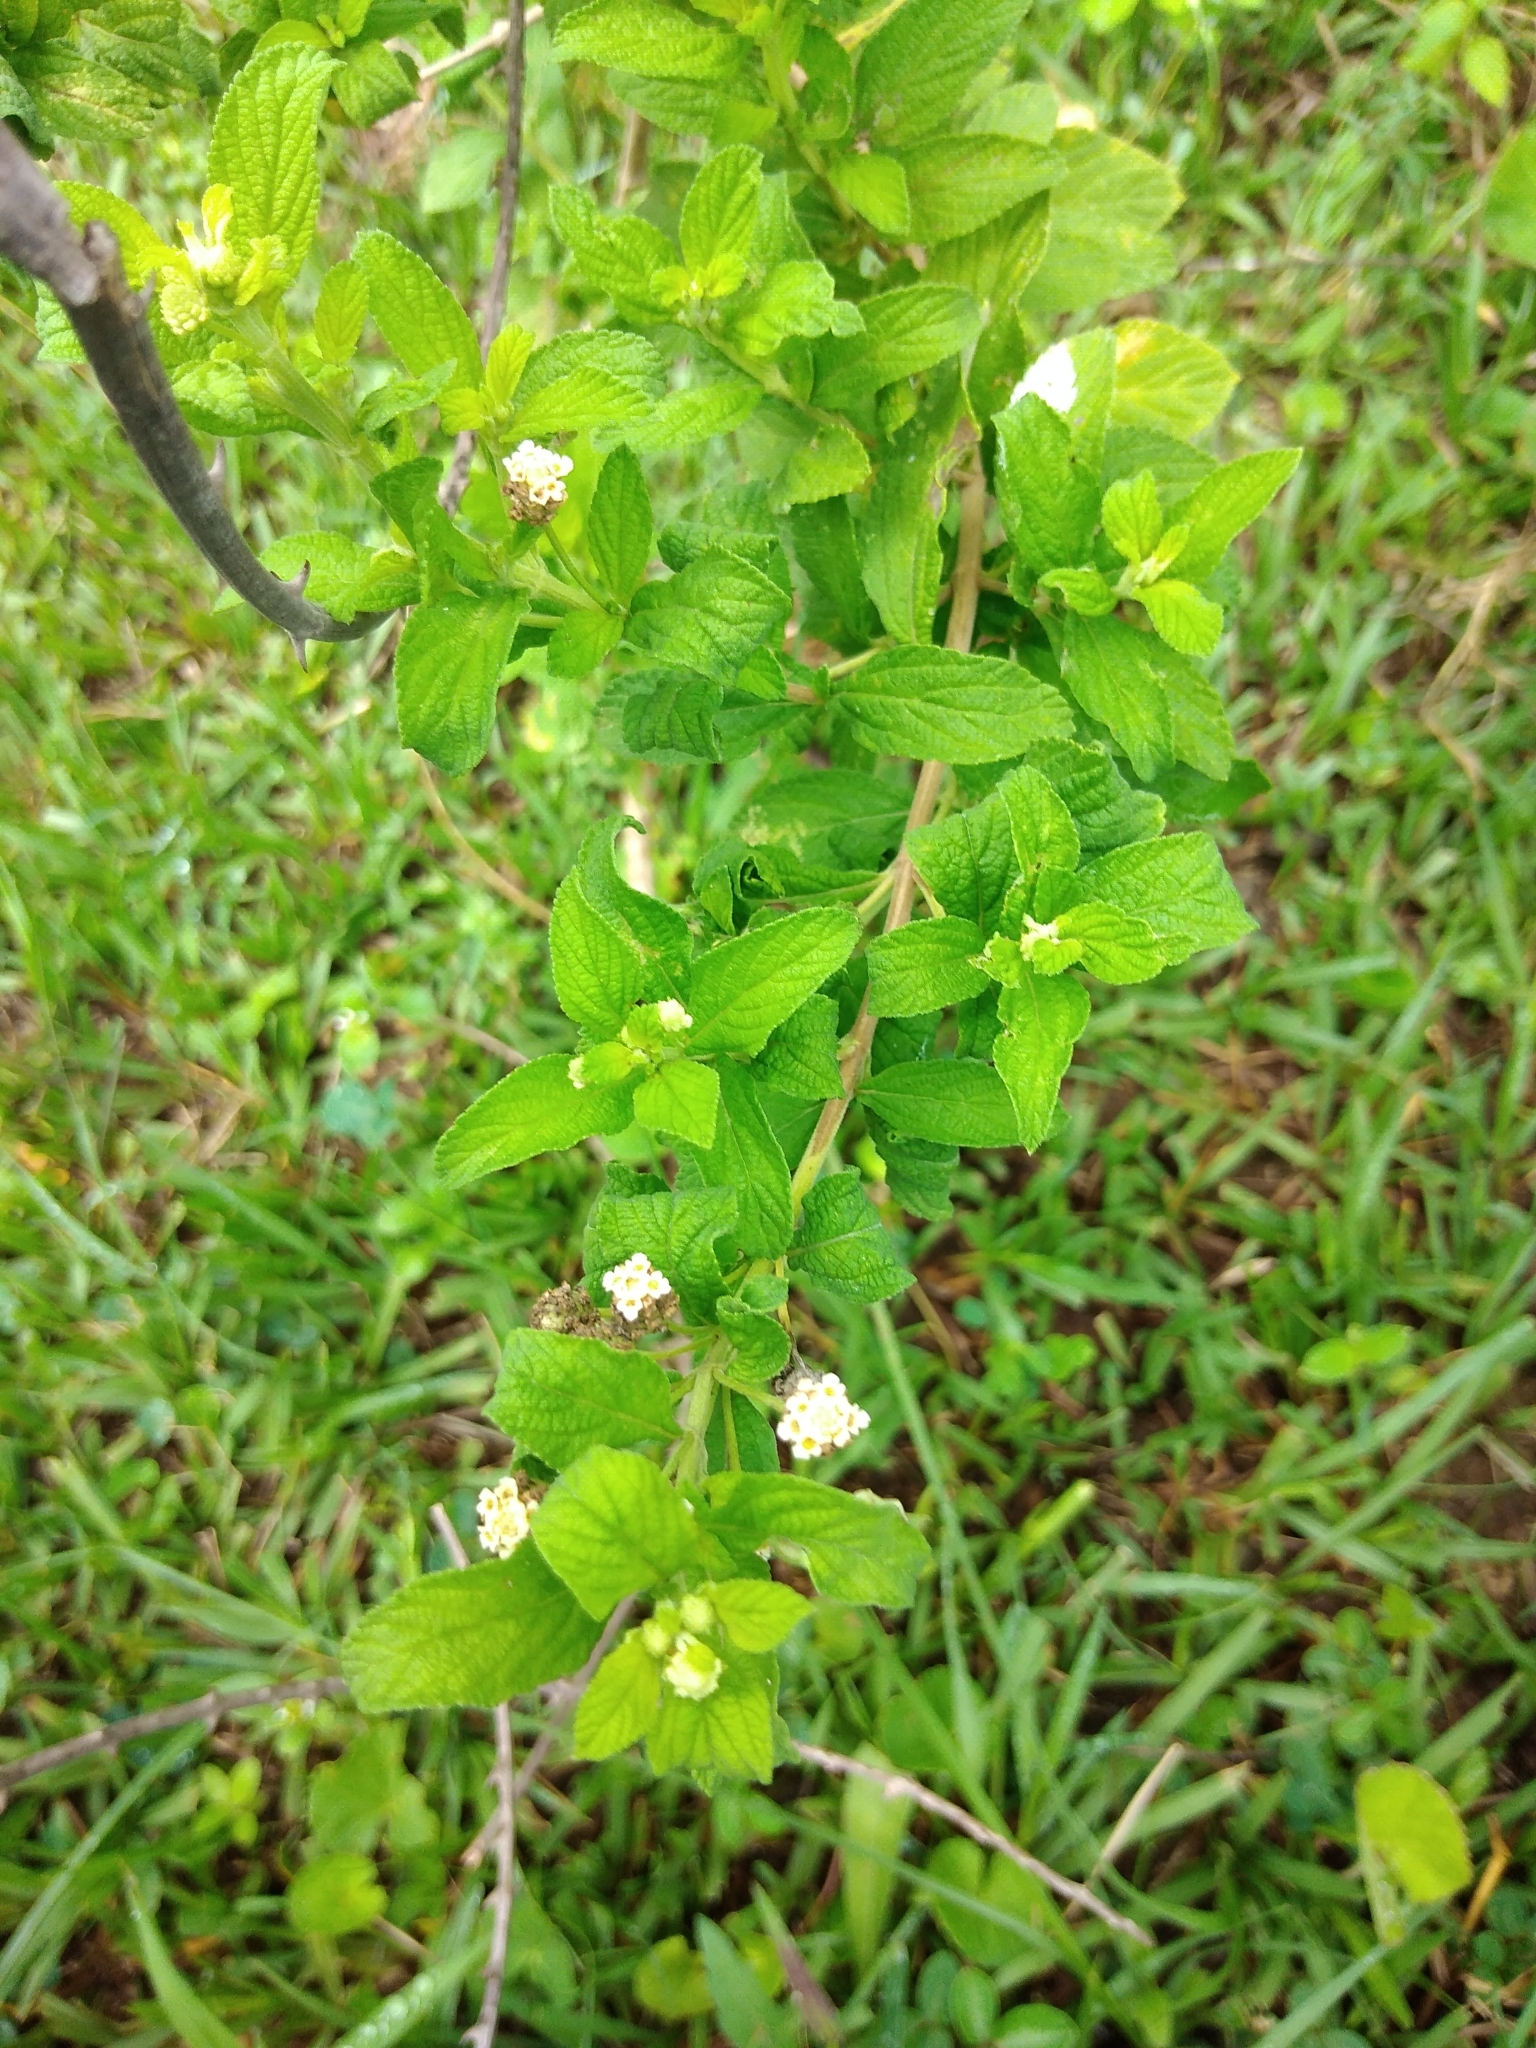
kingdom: Plantae
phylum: Tracheophyta
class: Magnoliopsida
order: Lamiales
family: Verbenaceae
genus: Lippia
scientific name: Lippia javanica
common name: Lemonbush
